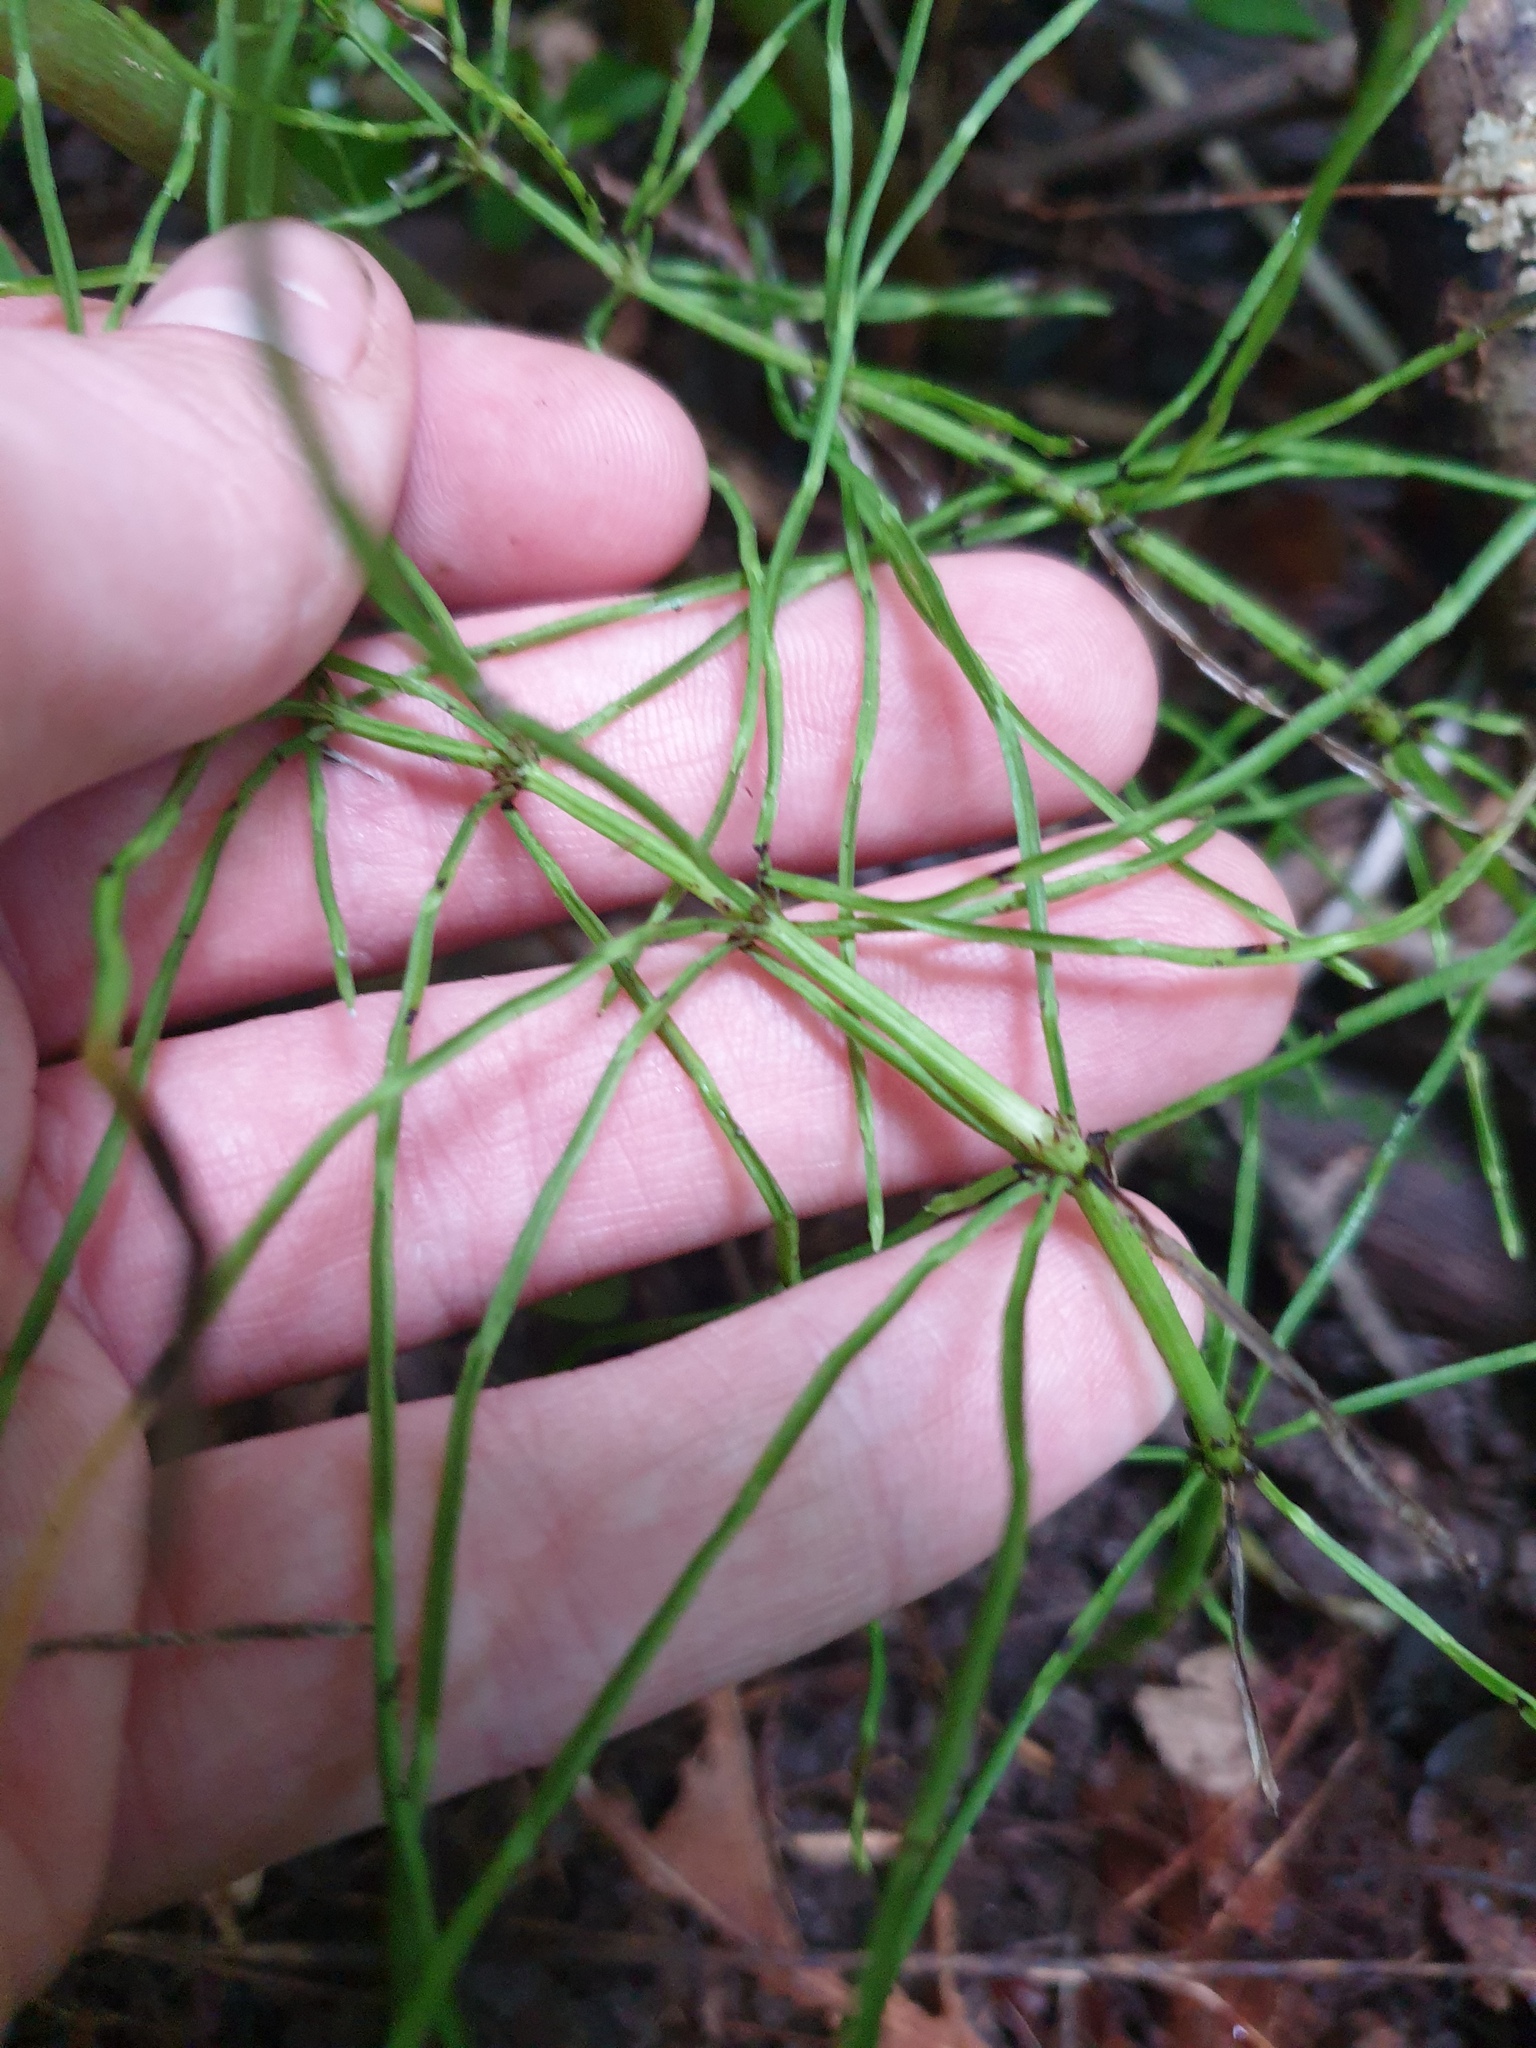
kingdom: Plantae
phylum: Tracheophyta
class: Polypodiopsida
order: Equisetales
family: Equisetaceae
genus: Equisetum
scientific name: Equisetum arvense
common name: Field horsetail
